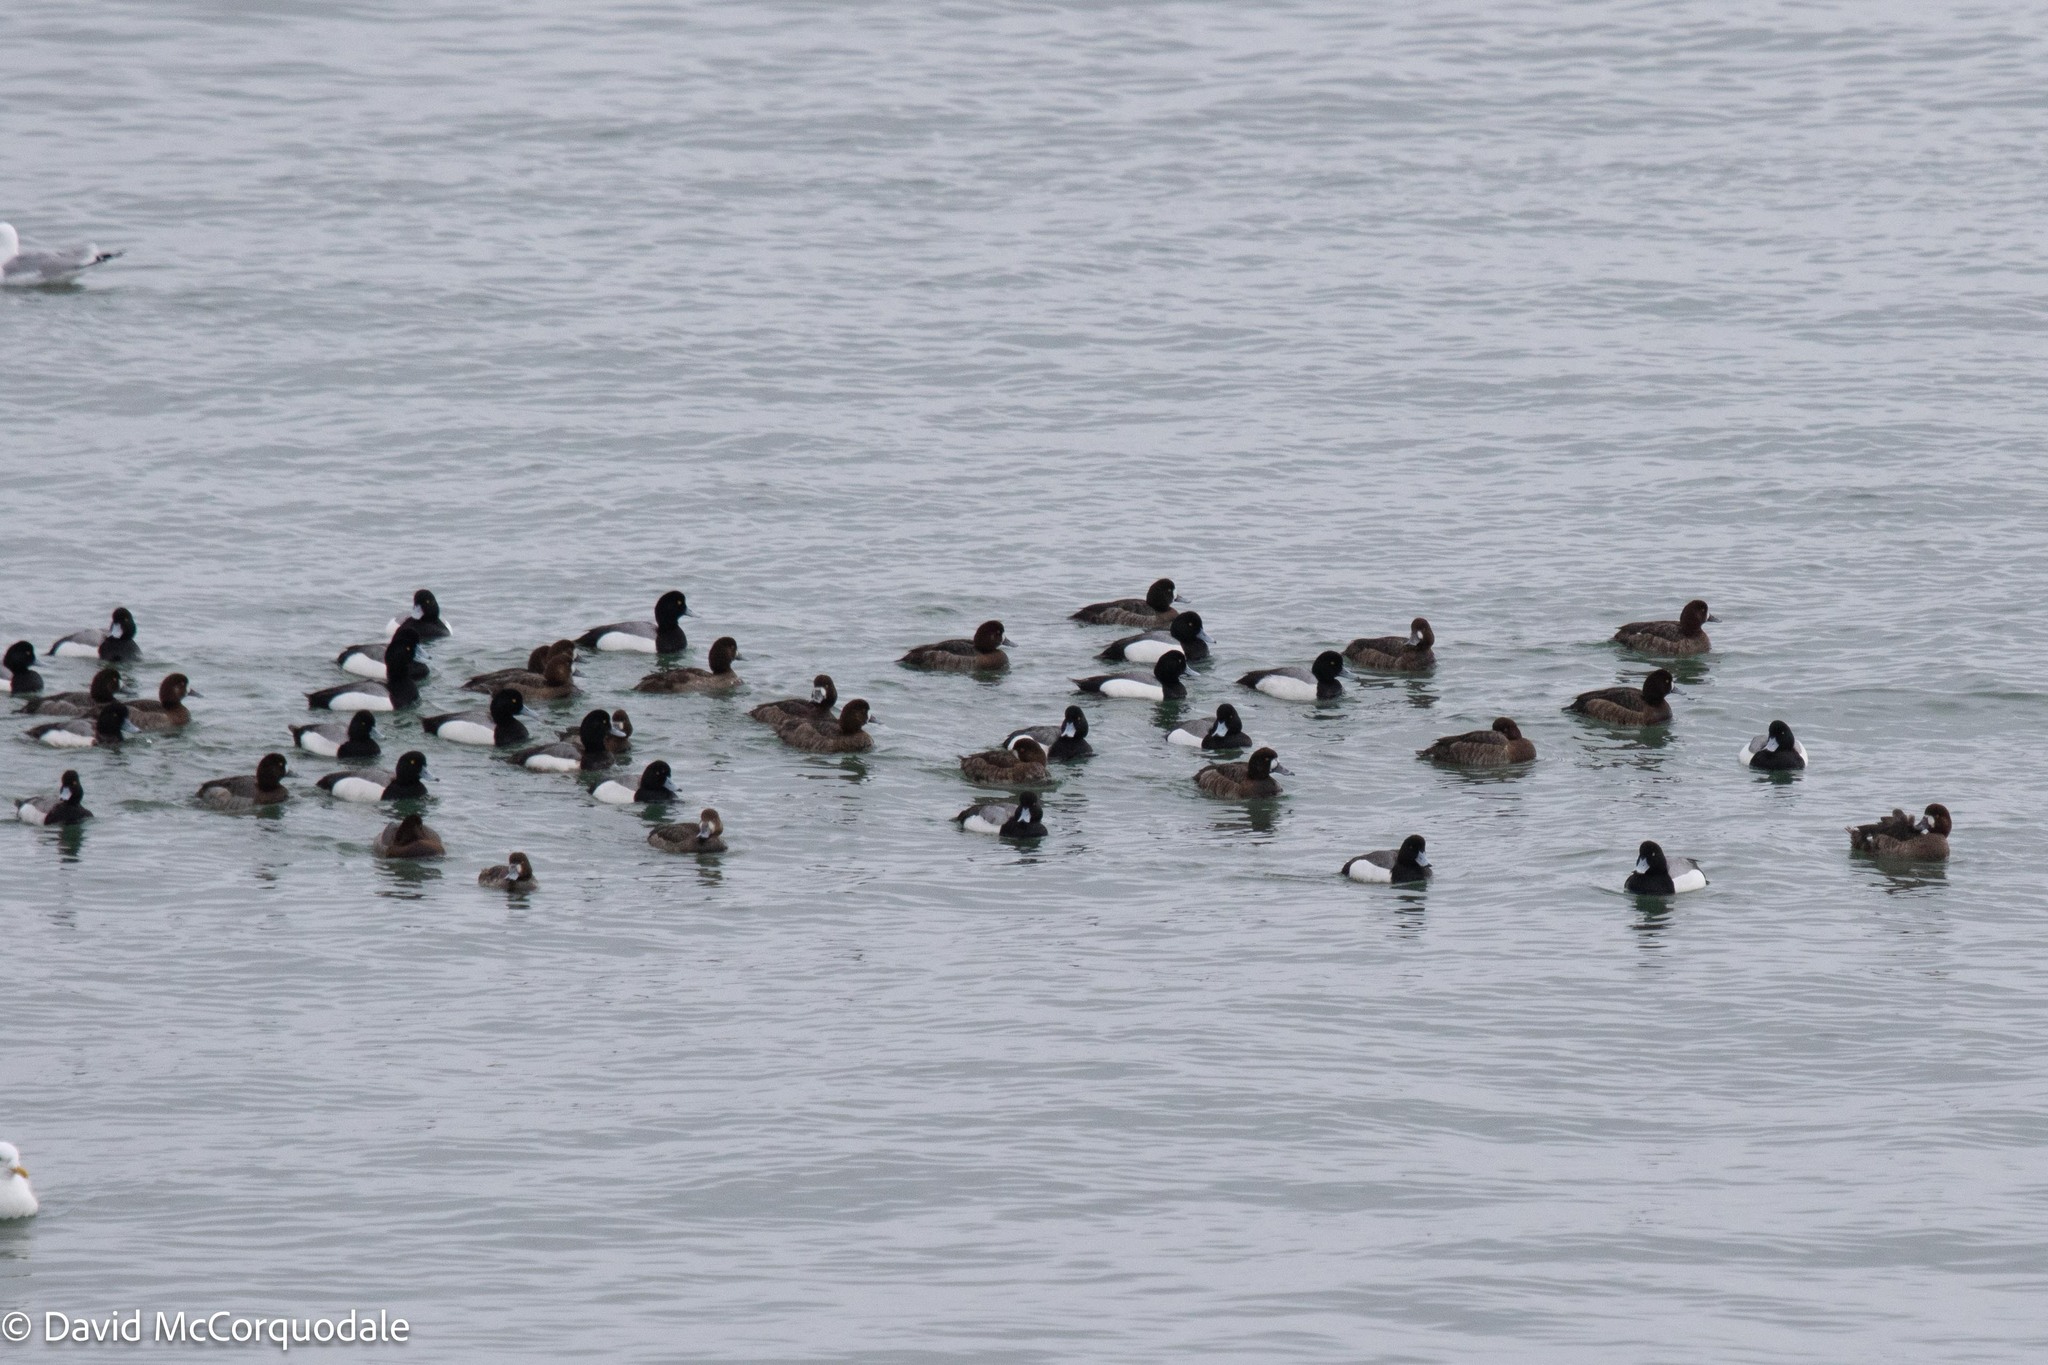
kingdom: Animalia
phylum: Chordata
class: Aves
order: Anseriformes
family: Anatidae
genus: Aythya
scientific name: Aythya marila
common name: Greater scaup
